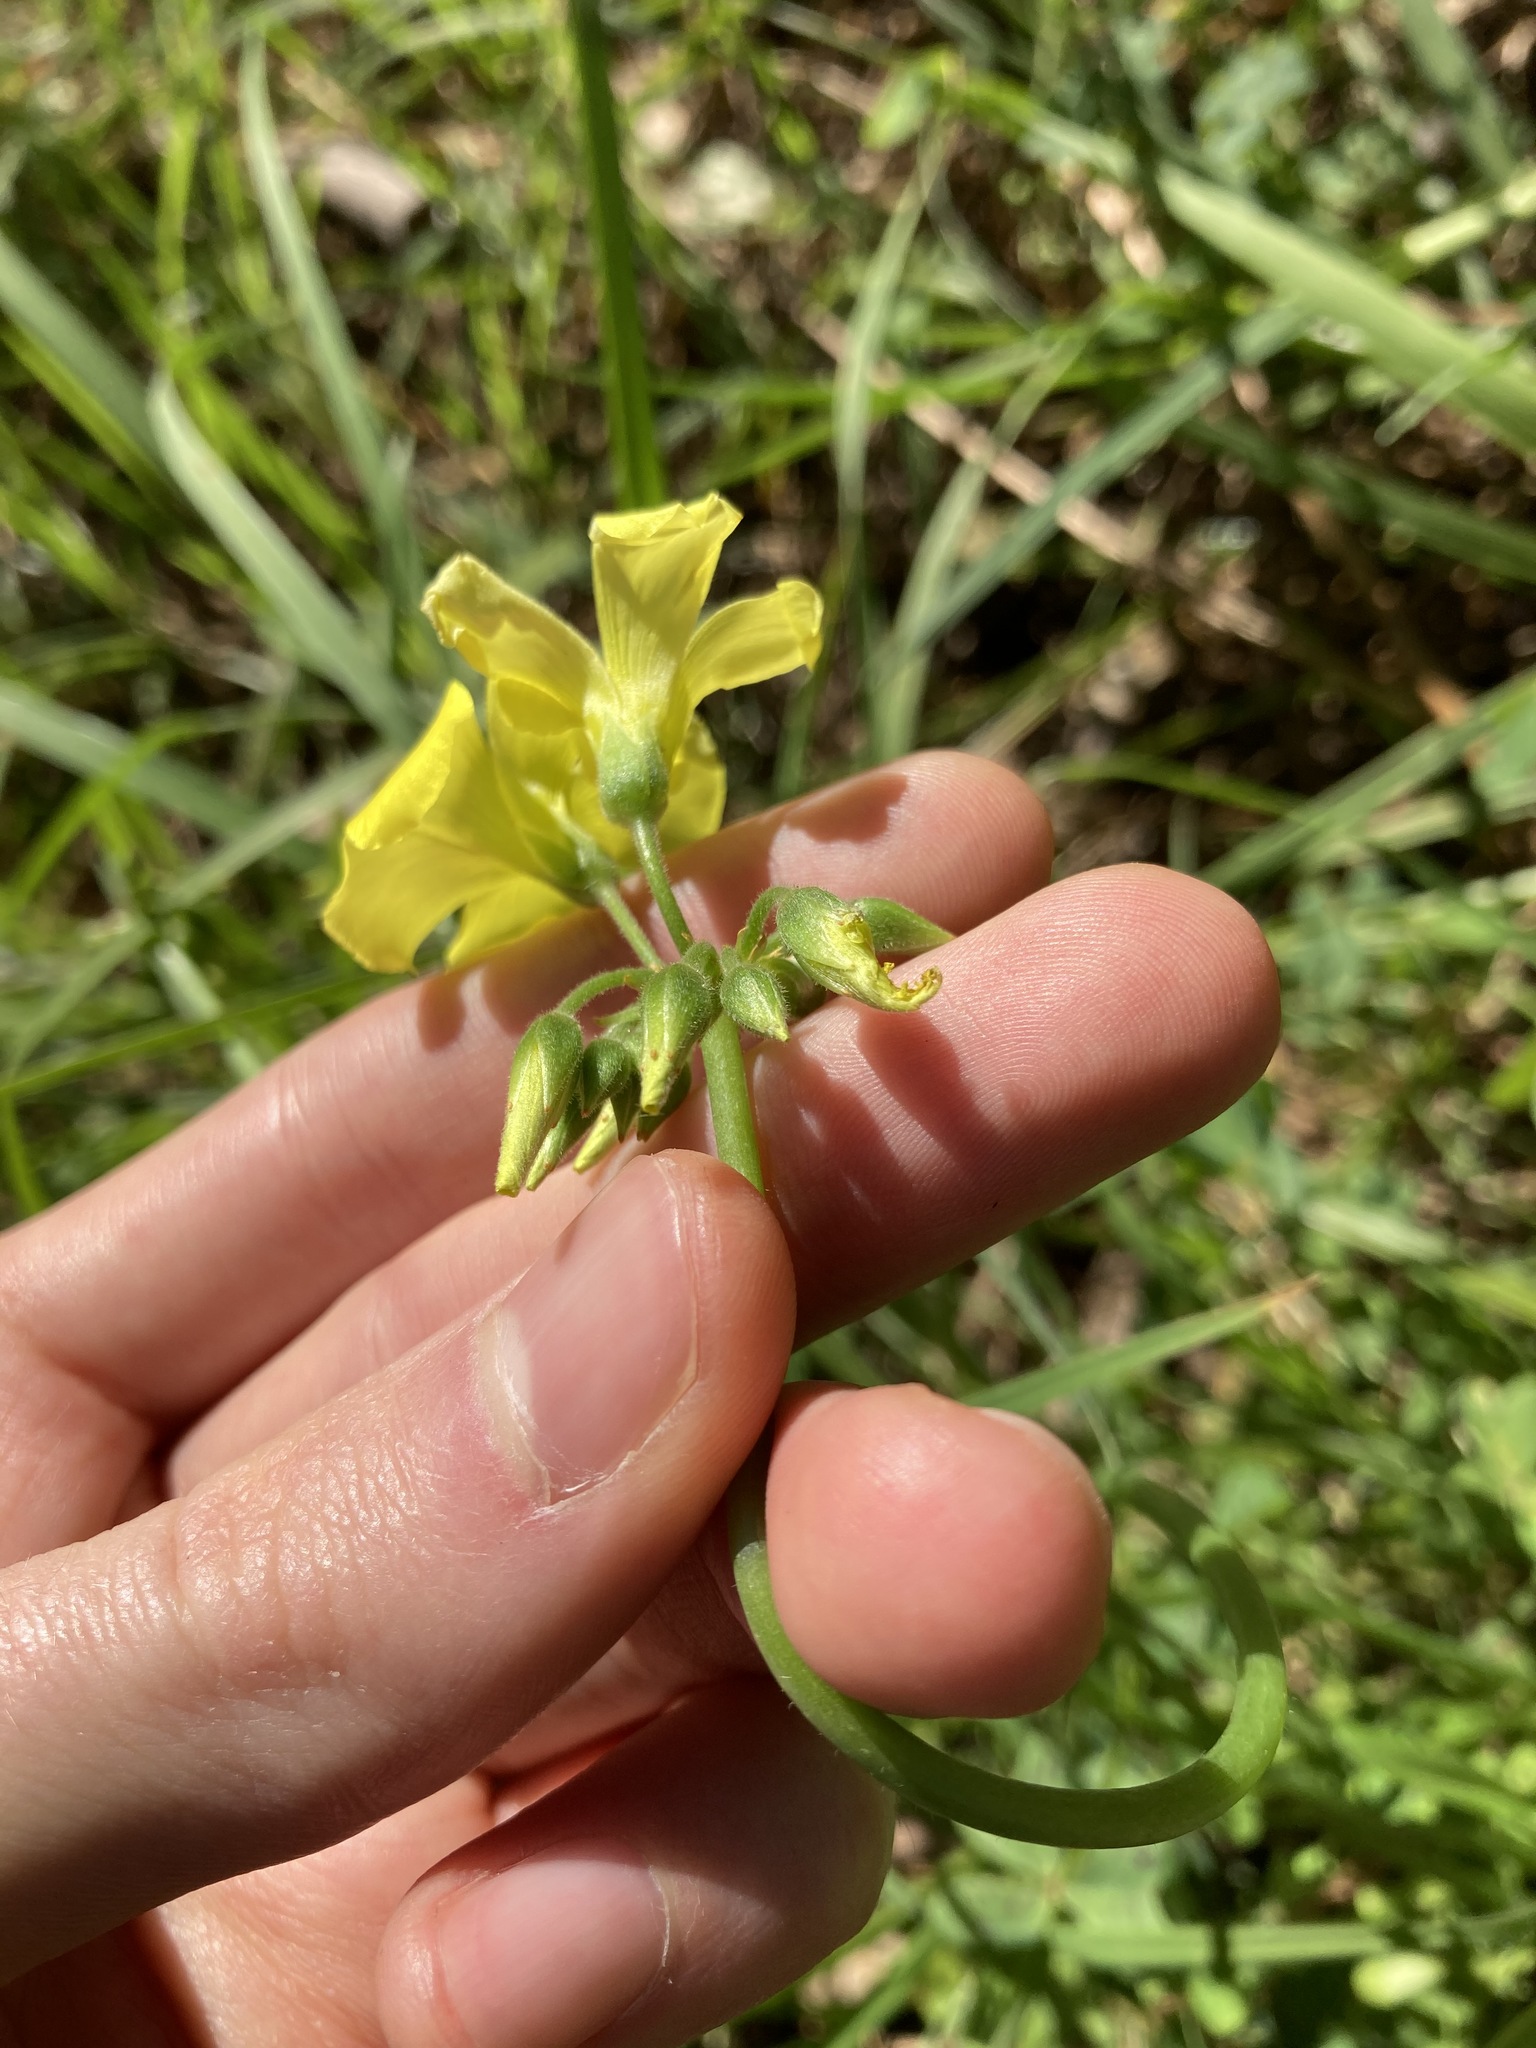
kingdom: Plantae
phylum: Tracheophyta
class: Magnoliopsida
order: Oxalidales
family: Oxalidaceae
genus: Oxalis
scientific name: Oxalis pes-caprae
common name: Bermuda-buttercup
